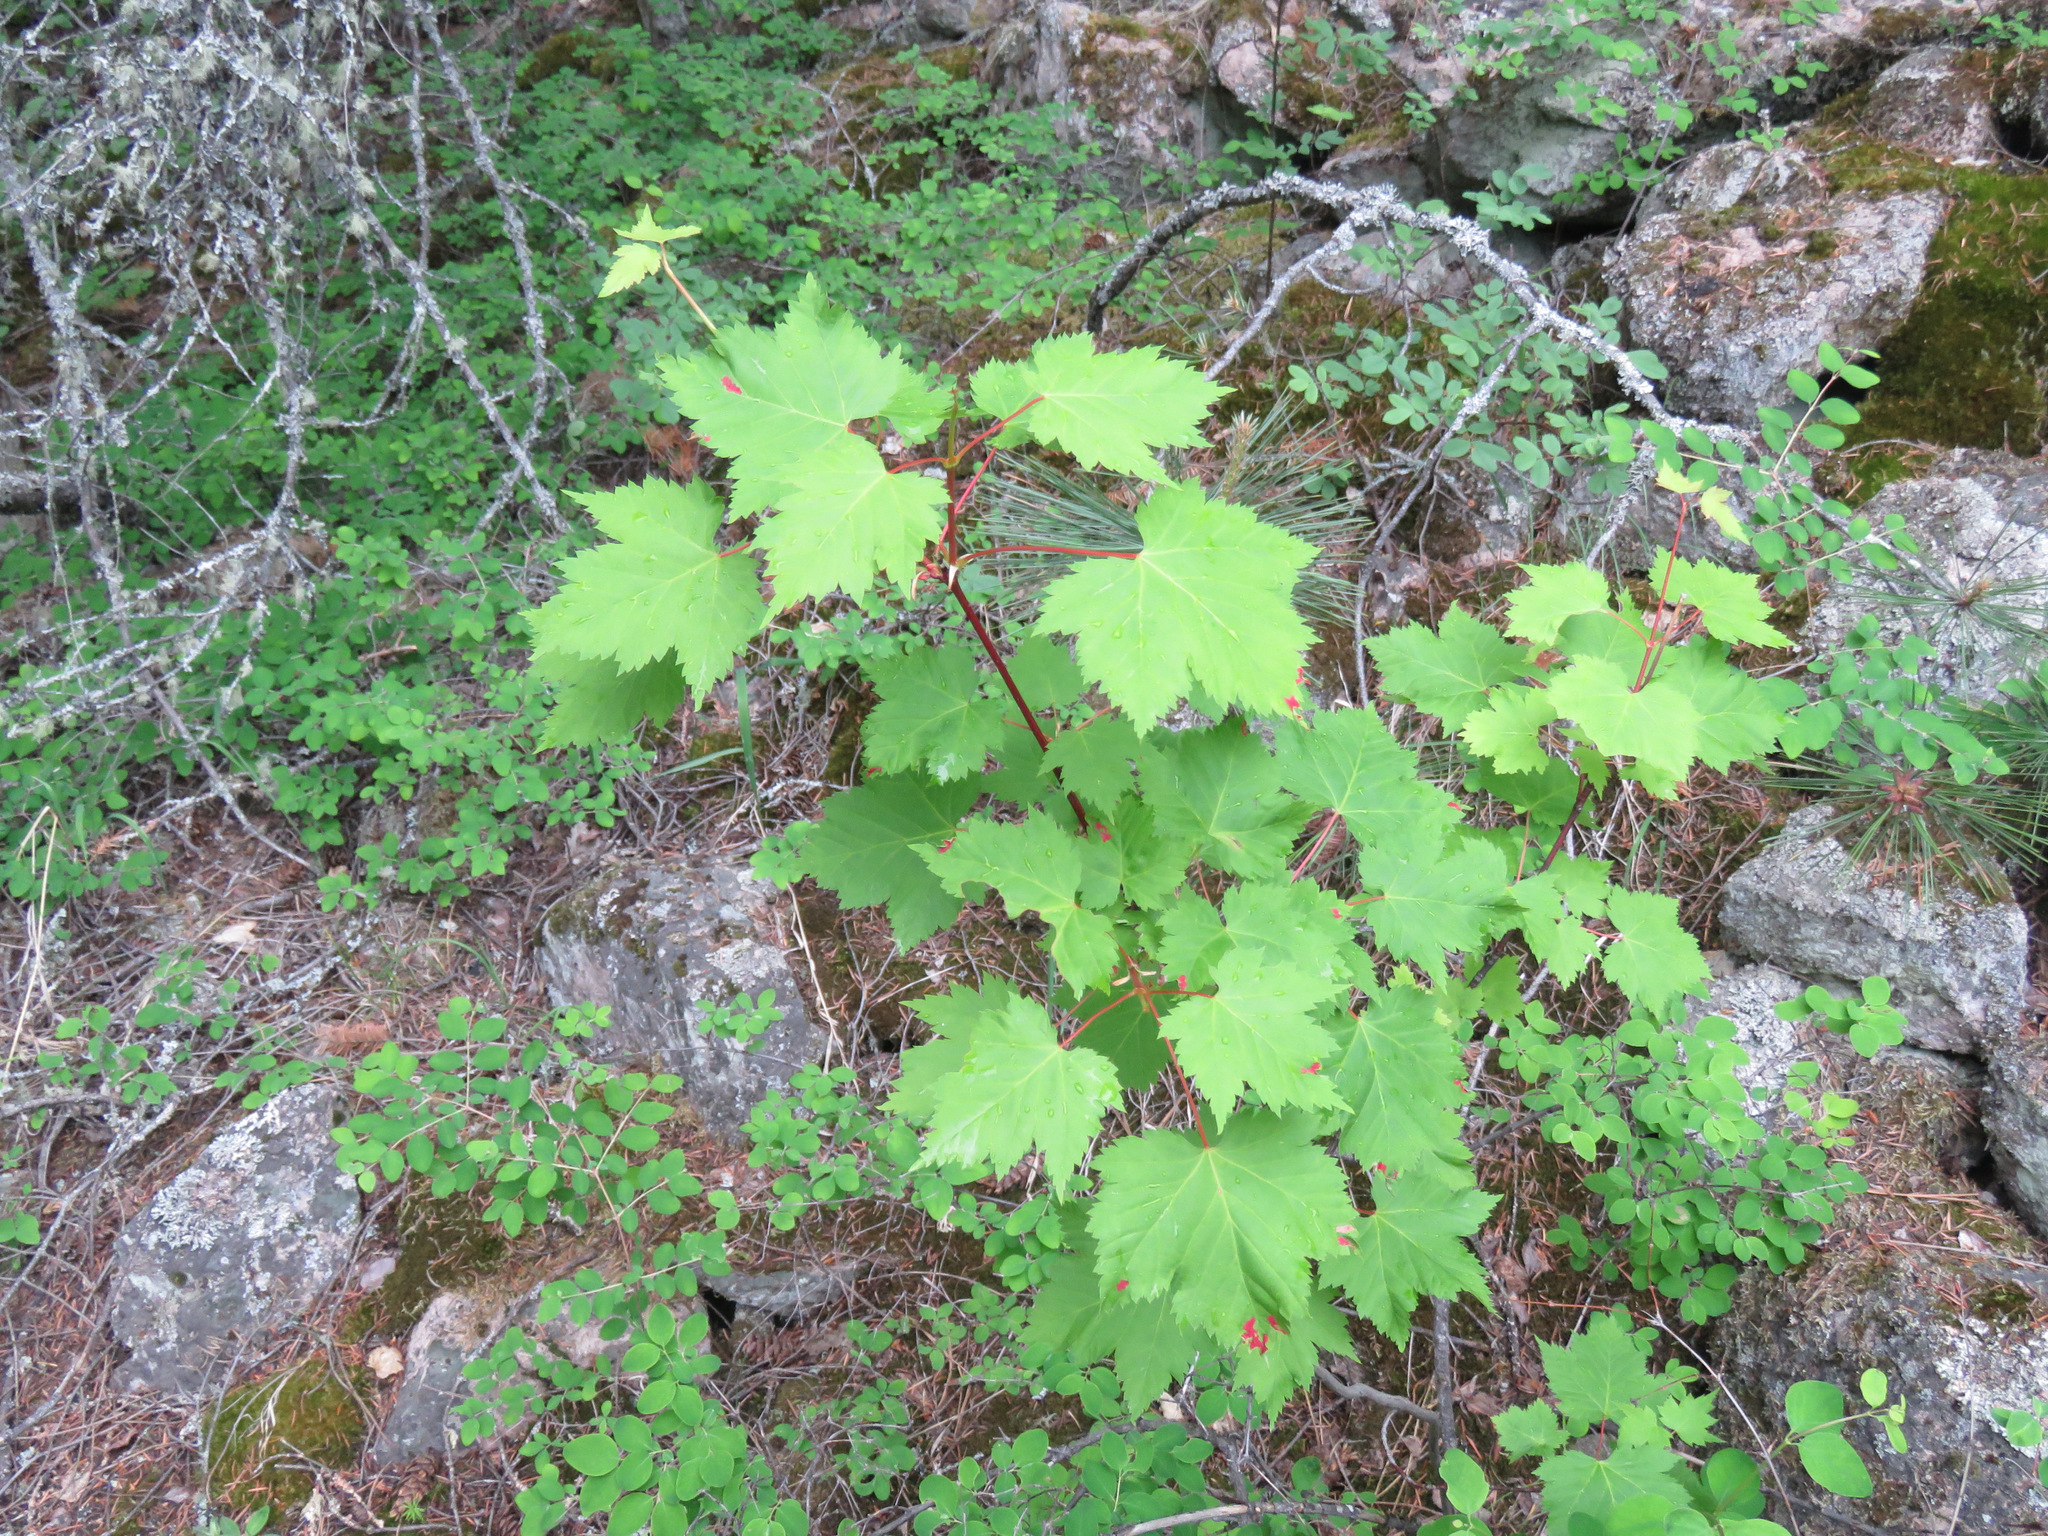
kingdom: Plantae
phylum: Tracheophyta
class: Magnoliopsida
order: Sapindales
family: Sapindaceae
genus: Acer
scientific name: Acer glabrum
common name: Rocky mountain maple
